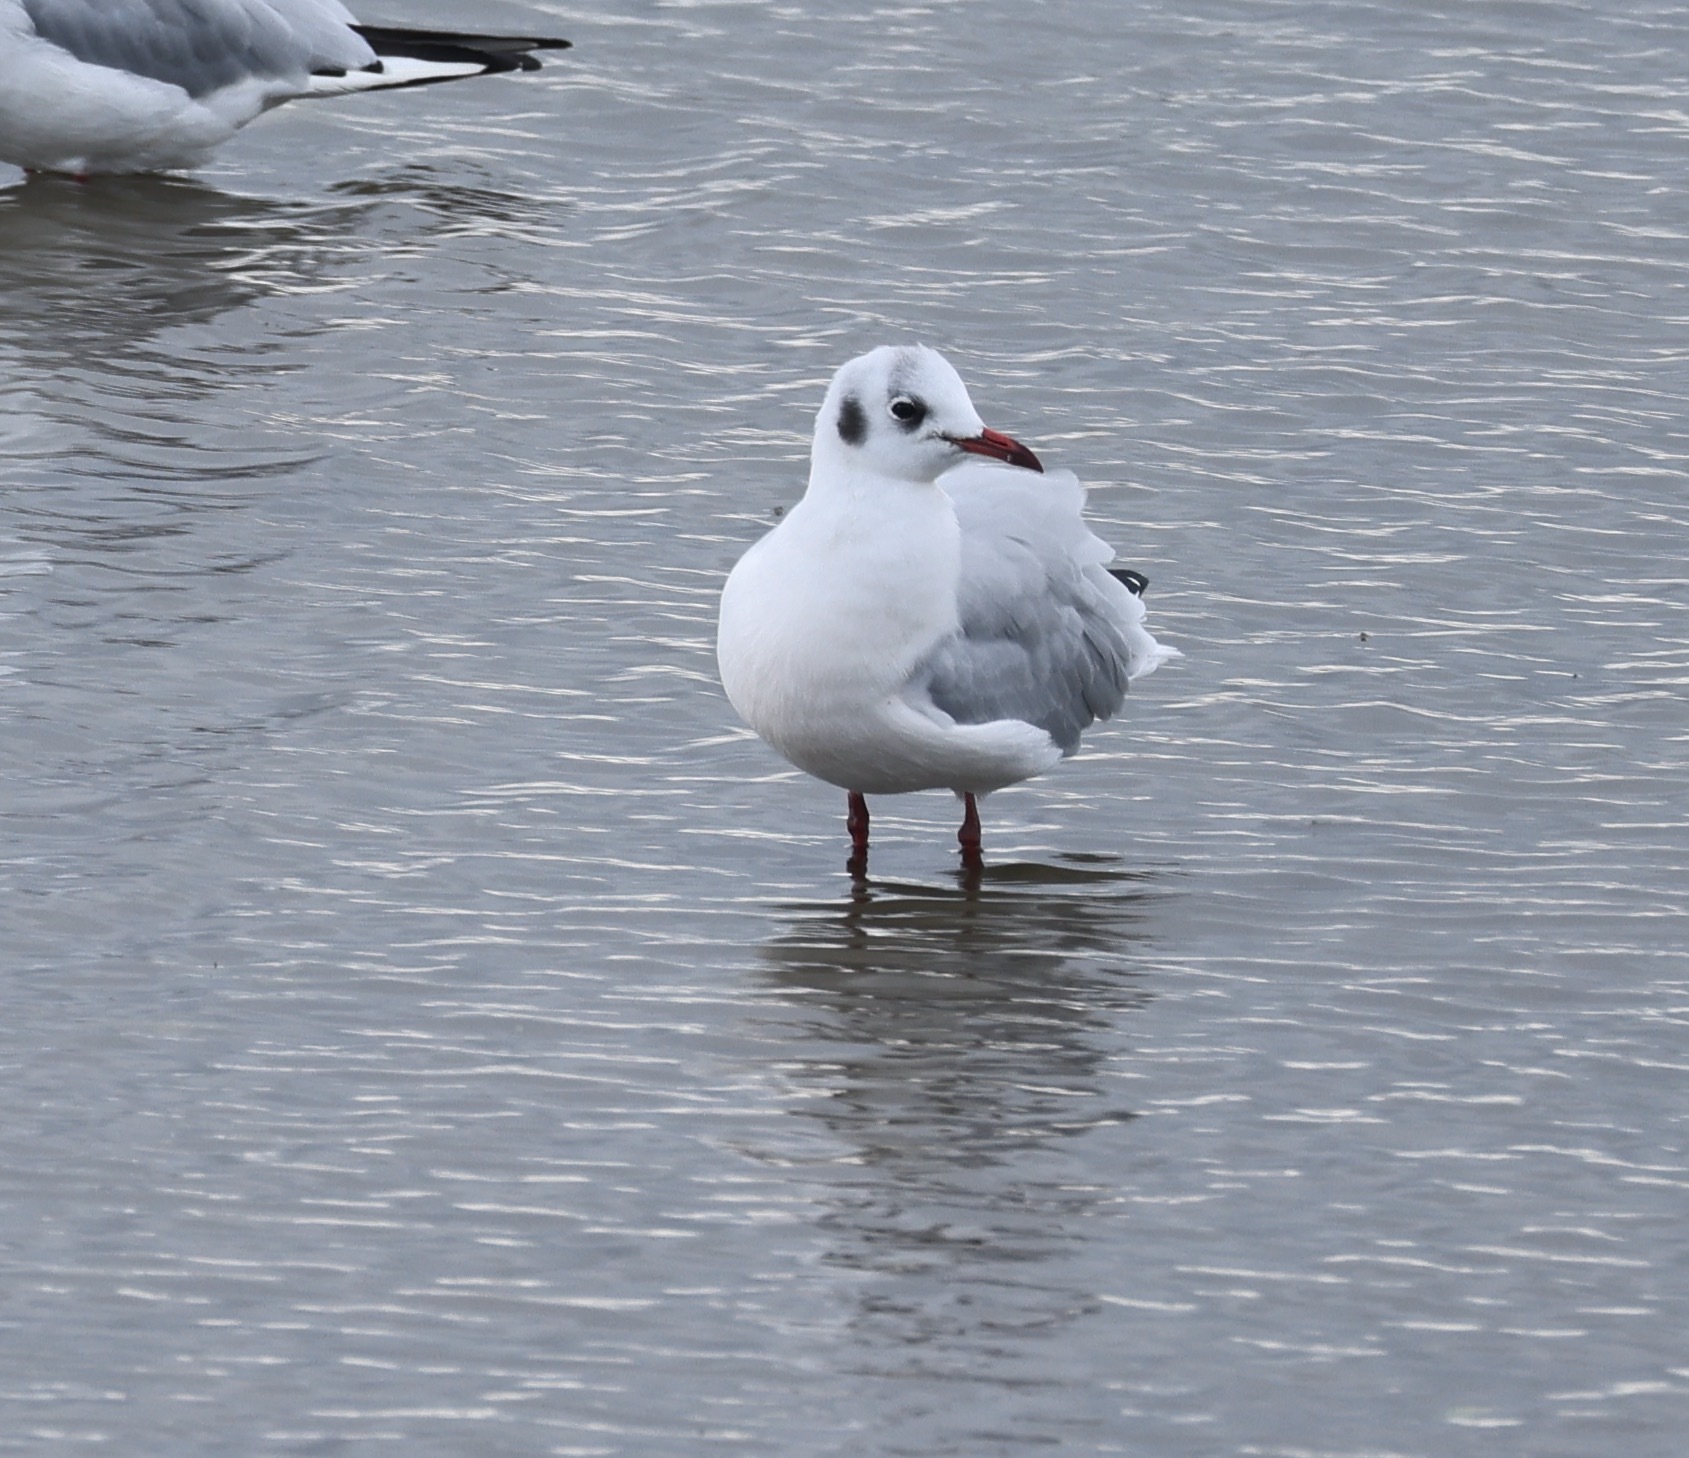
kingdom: Animalia
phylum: Chordata
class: Aves
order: Charadriiformes
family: Laridae
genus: Chroicocephalus
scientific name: Chroicocephalus ridibundus
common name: Black-headed gull
